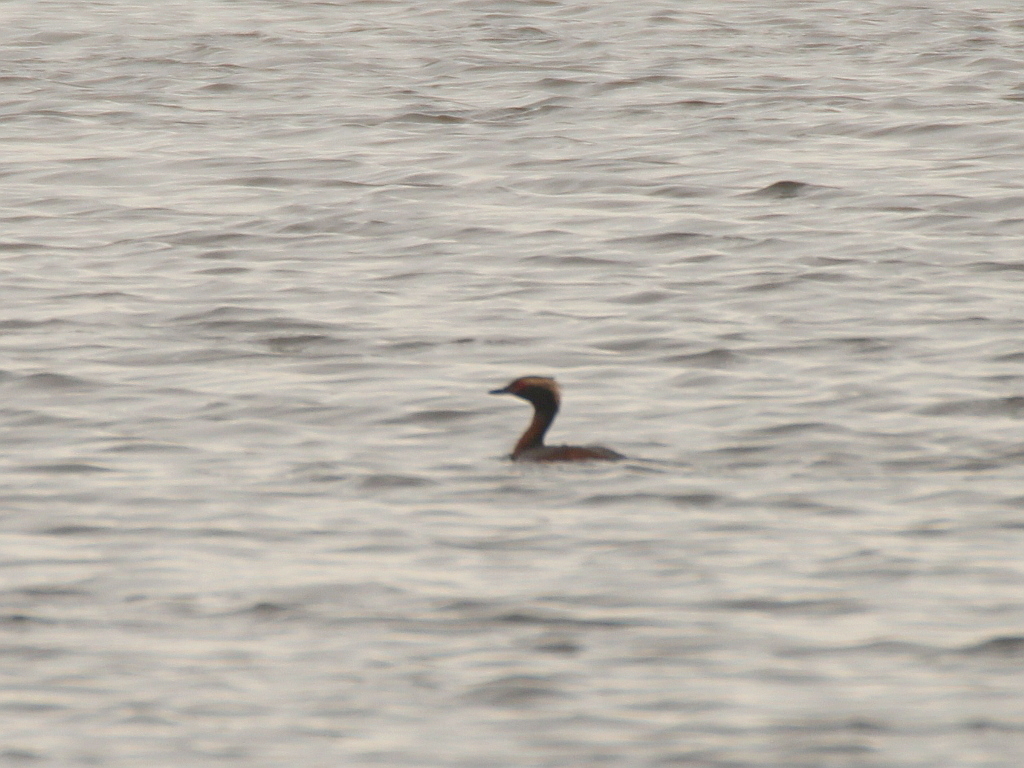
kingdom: Animalia
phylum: Chordata
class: Aves
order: Podicipediformes
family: Podicipedidae
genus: Podiceps
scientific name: Podiceps auritus
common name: Horned grebe
